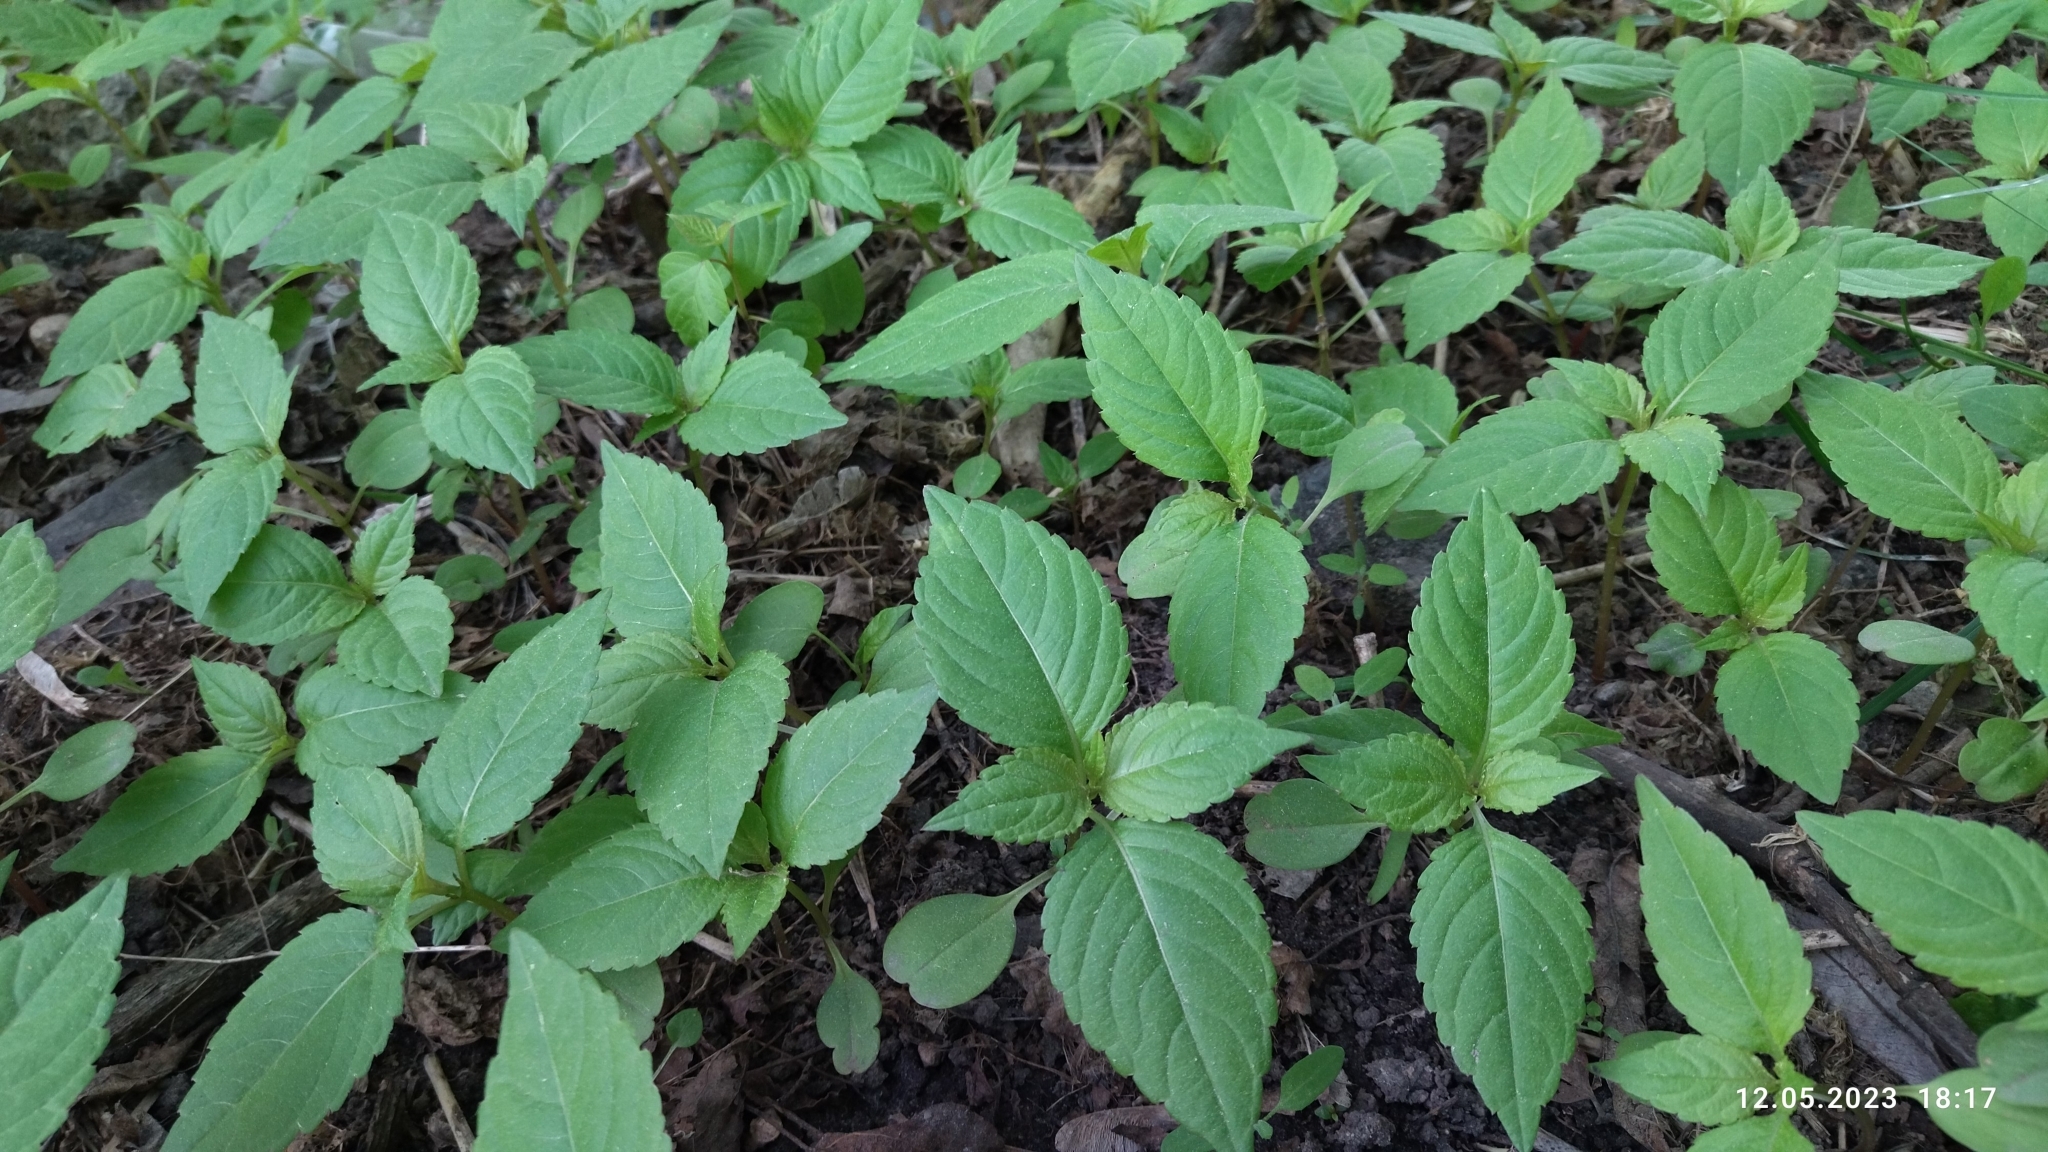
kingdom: Plantae
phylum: Tracheophyta
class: Magnoliopsida
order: Ericales
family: Balsaminaceae
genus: Impatiens
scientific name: Impatiens parviflora
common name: Small balsam
